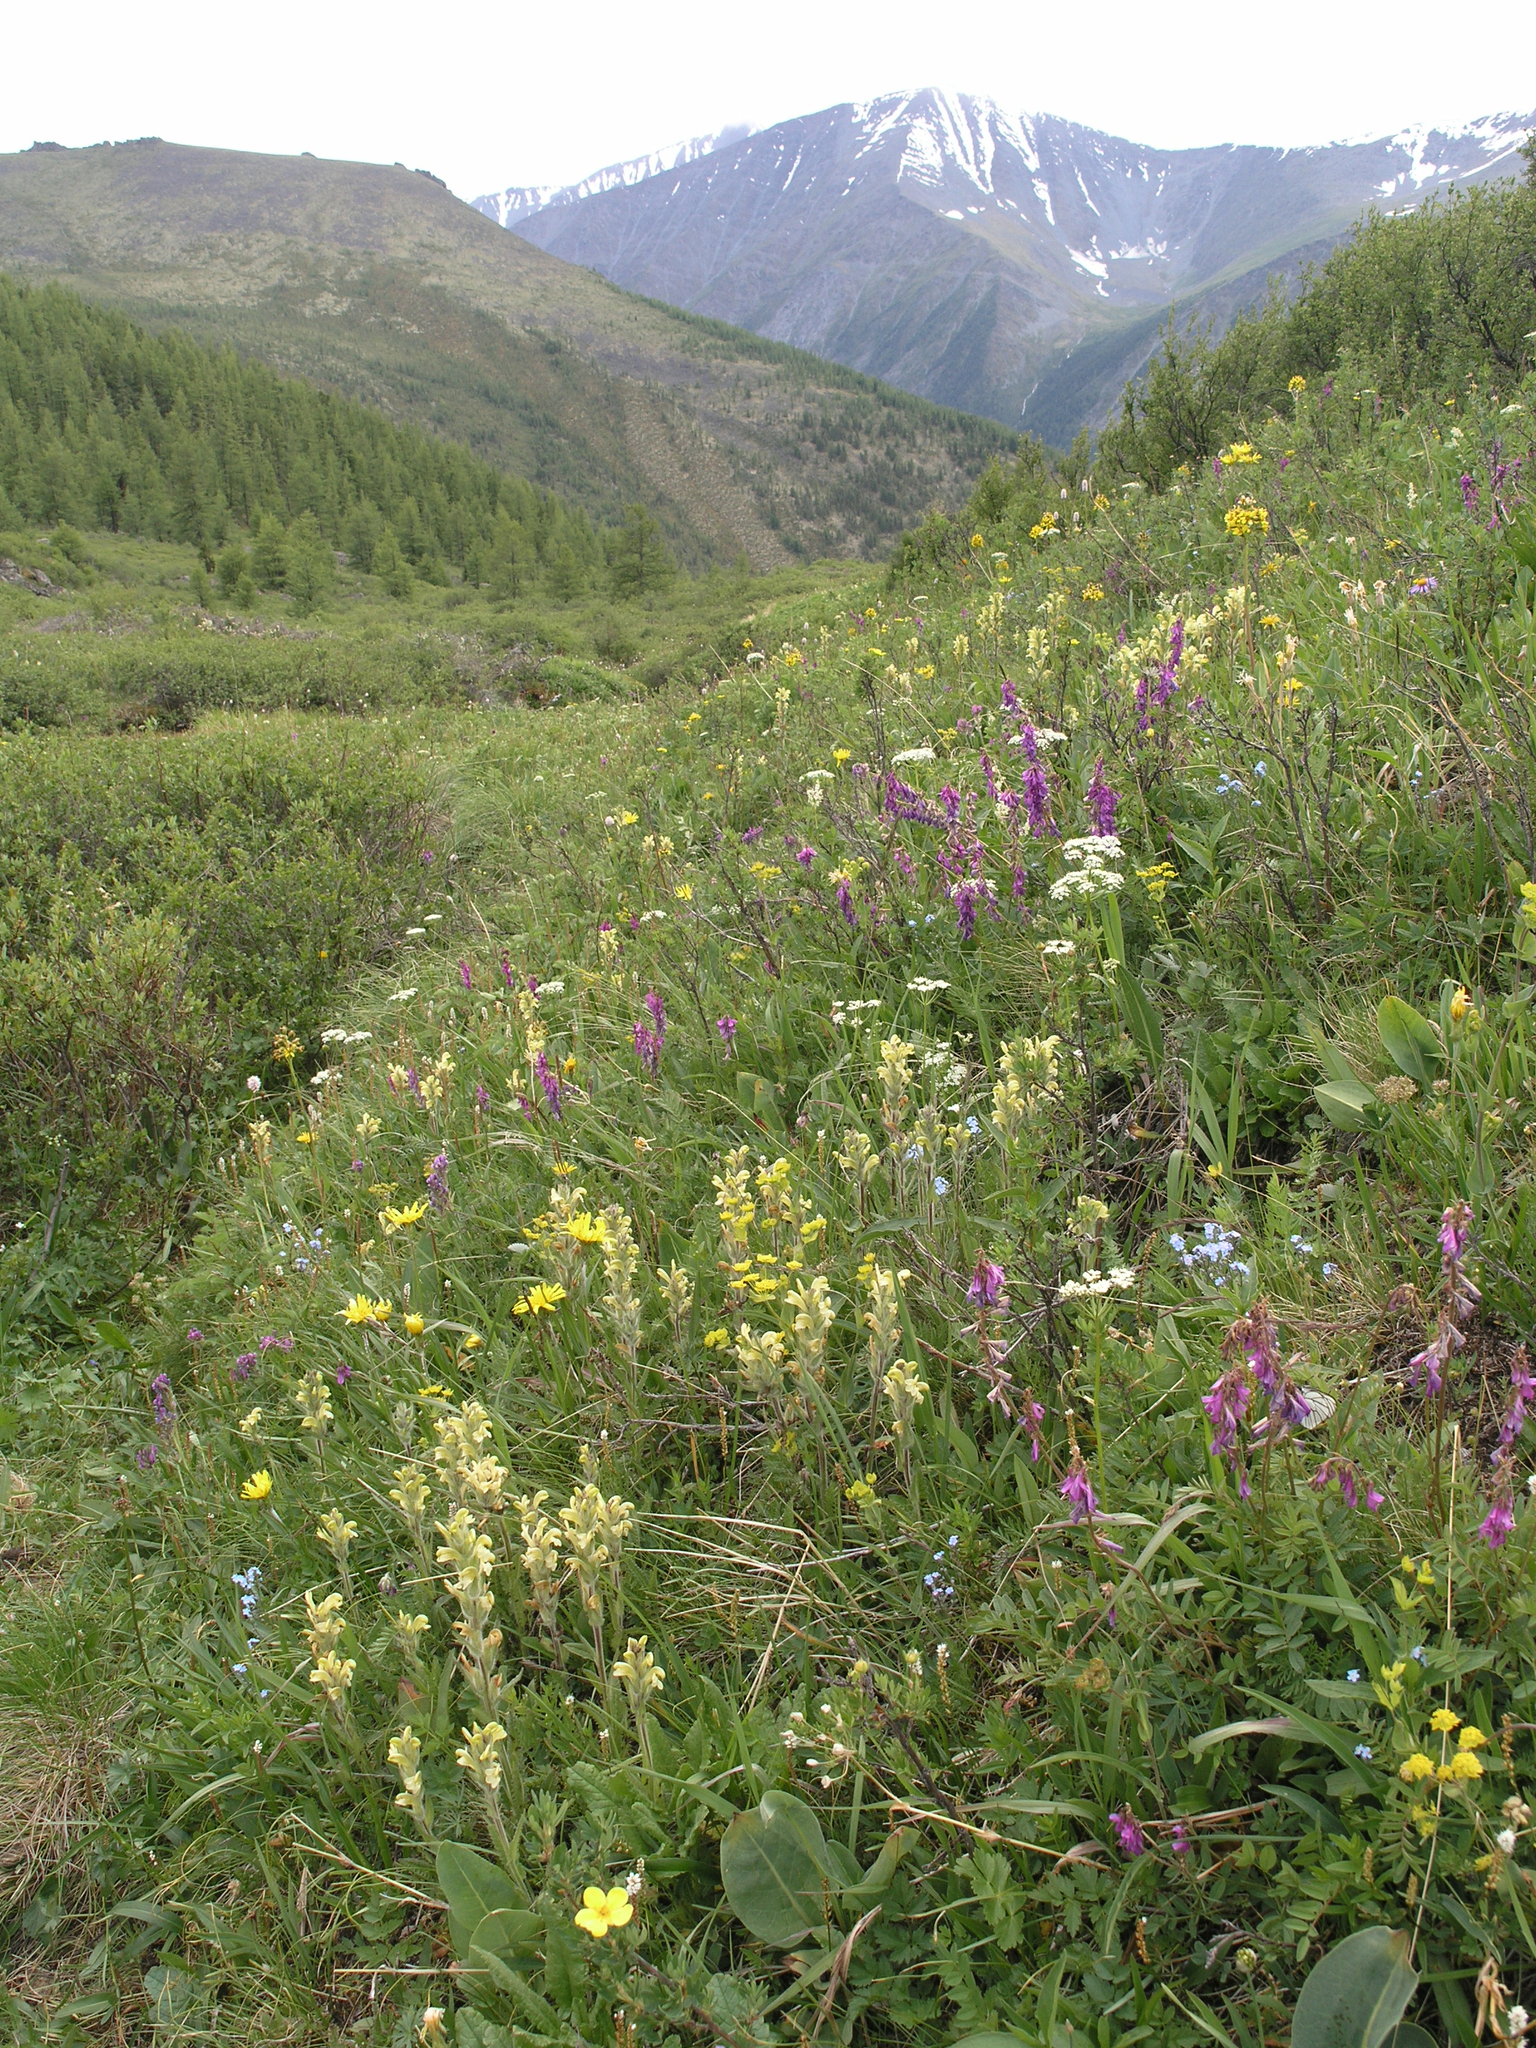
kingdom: Plantae
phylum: Tracheophyta
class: Magnoliopsida
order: Lamiales
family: Orobanchaceae
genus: Pedicularis
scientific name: Pedicularis tristis
